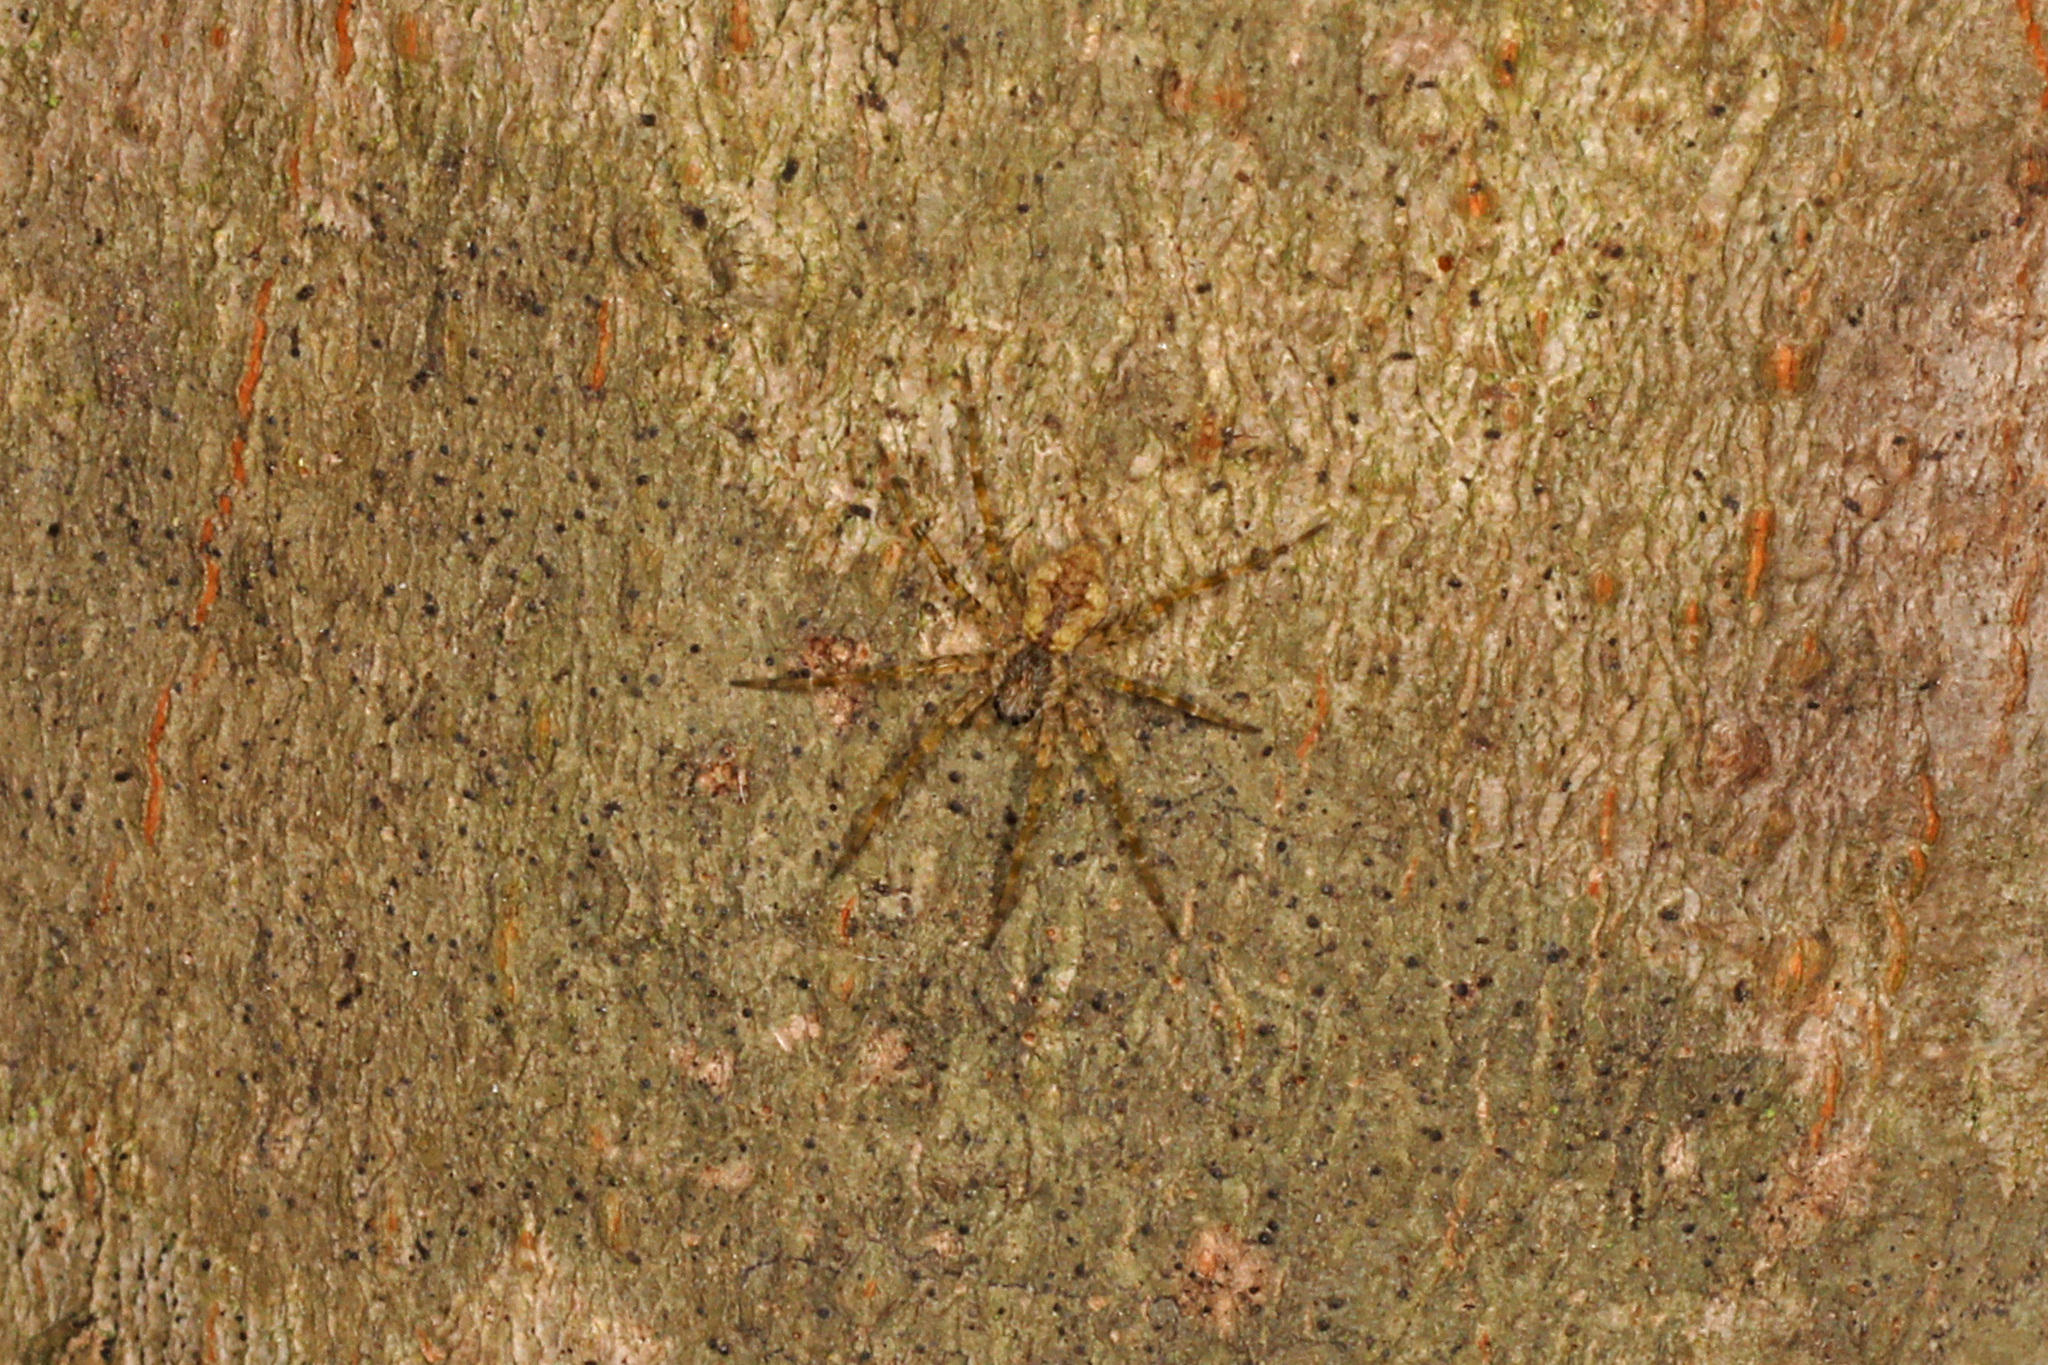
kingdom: Animalia
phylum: Arthropoda
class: Arachnida
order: Araneae
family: Pisauridae
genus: Dolomedes
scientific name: Dolomedes albineus
